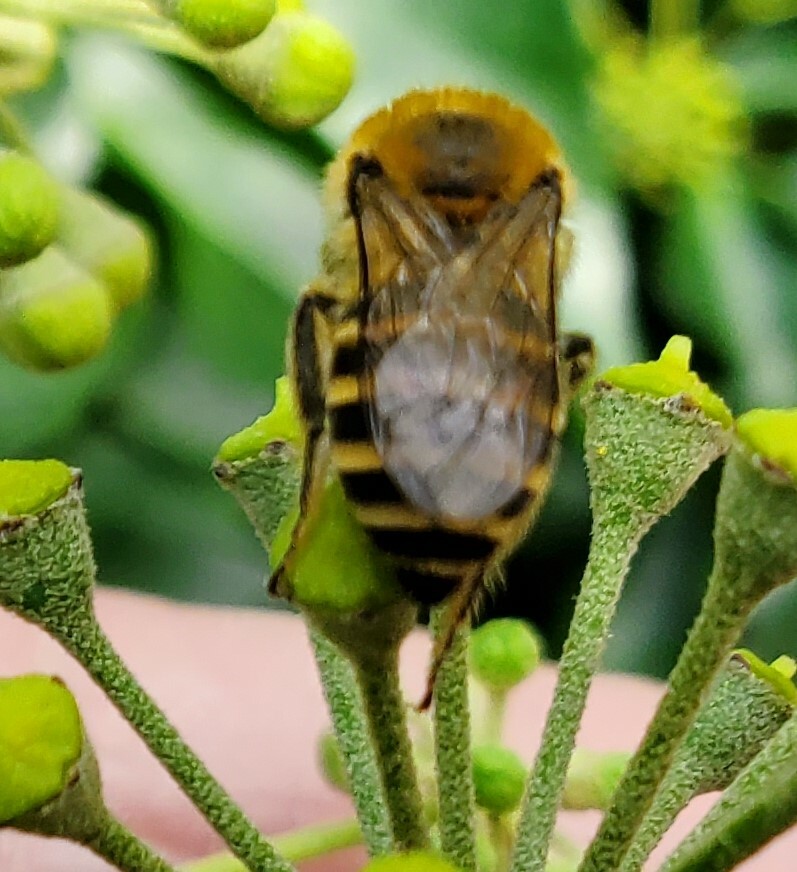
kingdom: Animalia
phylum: Arthropoda
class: Insecta
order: Hymenoptera
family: Colletidae
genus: Colletes
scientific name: Colletes hederae
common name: Ivy bee
